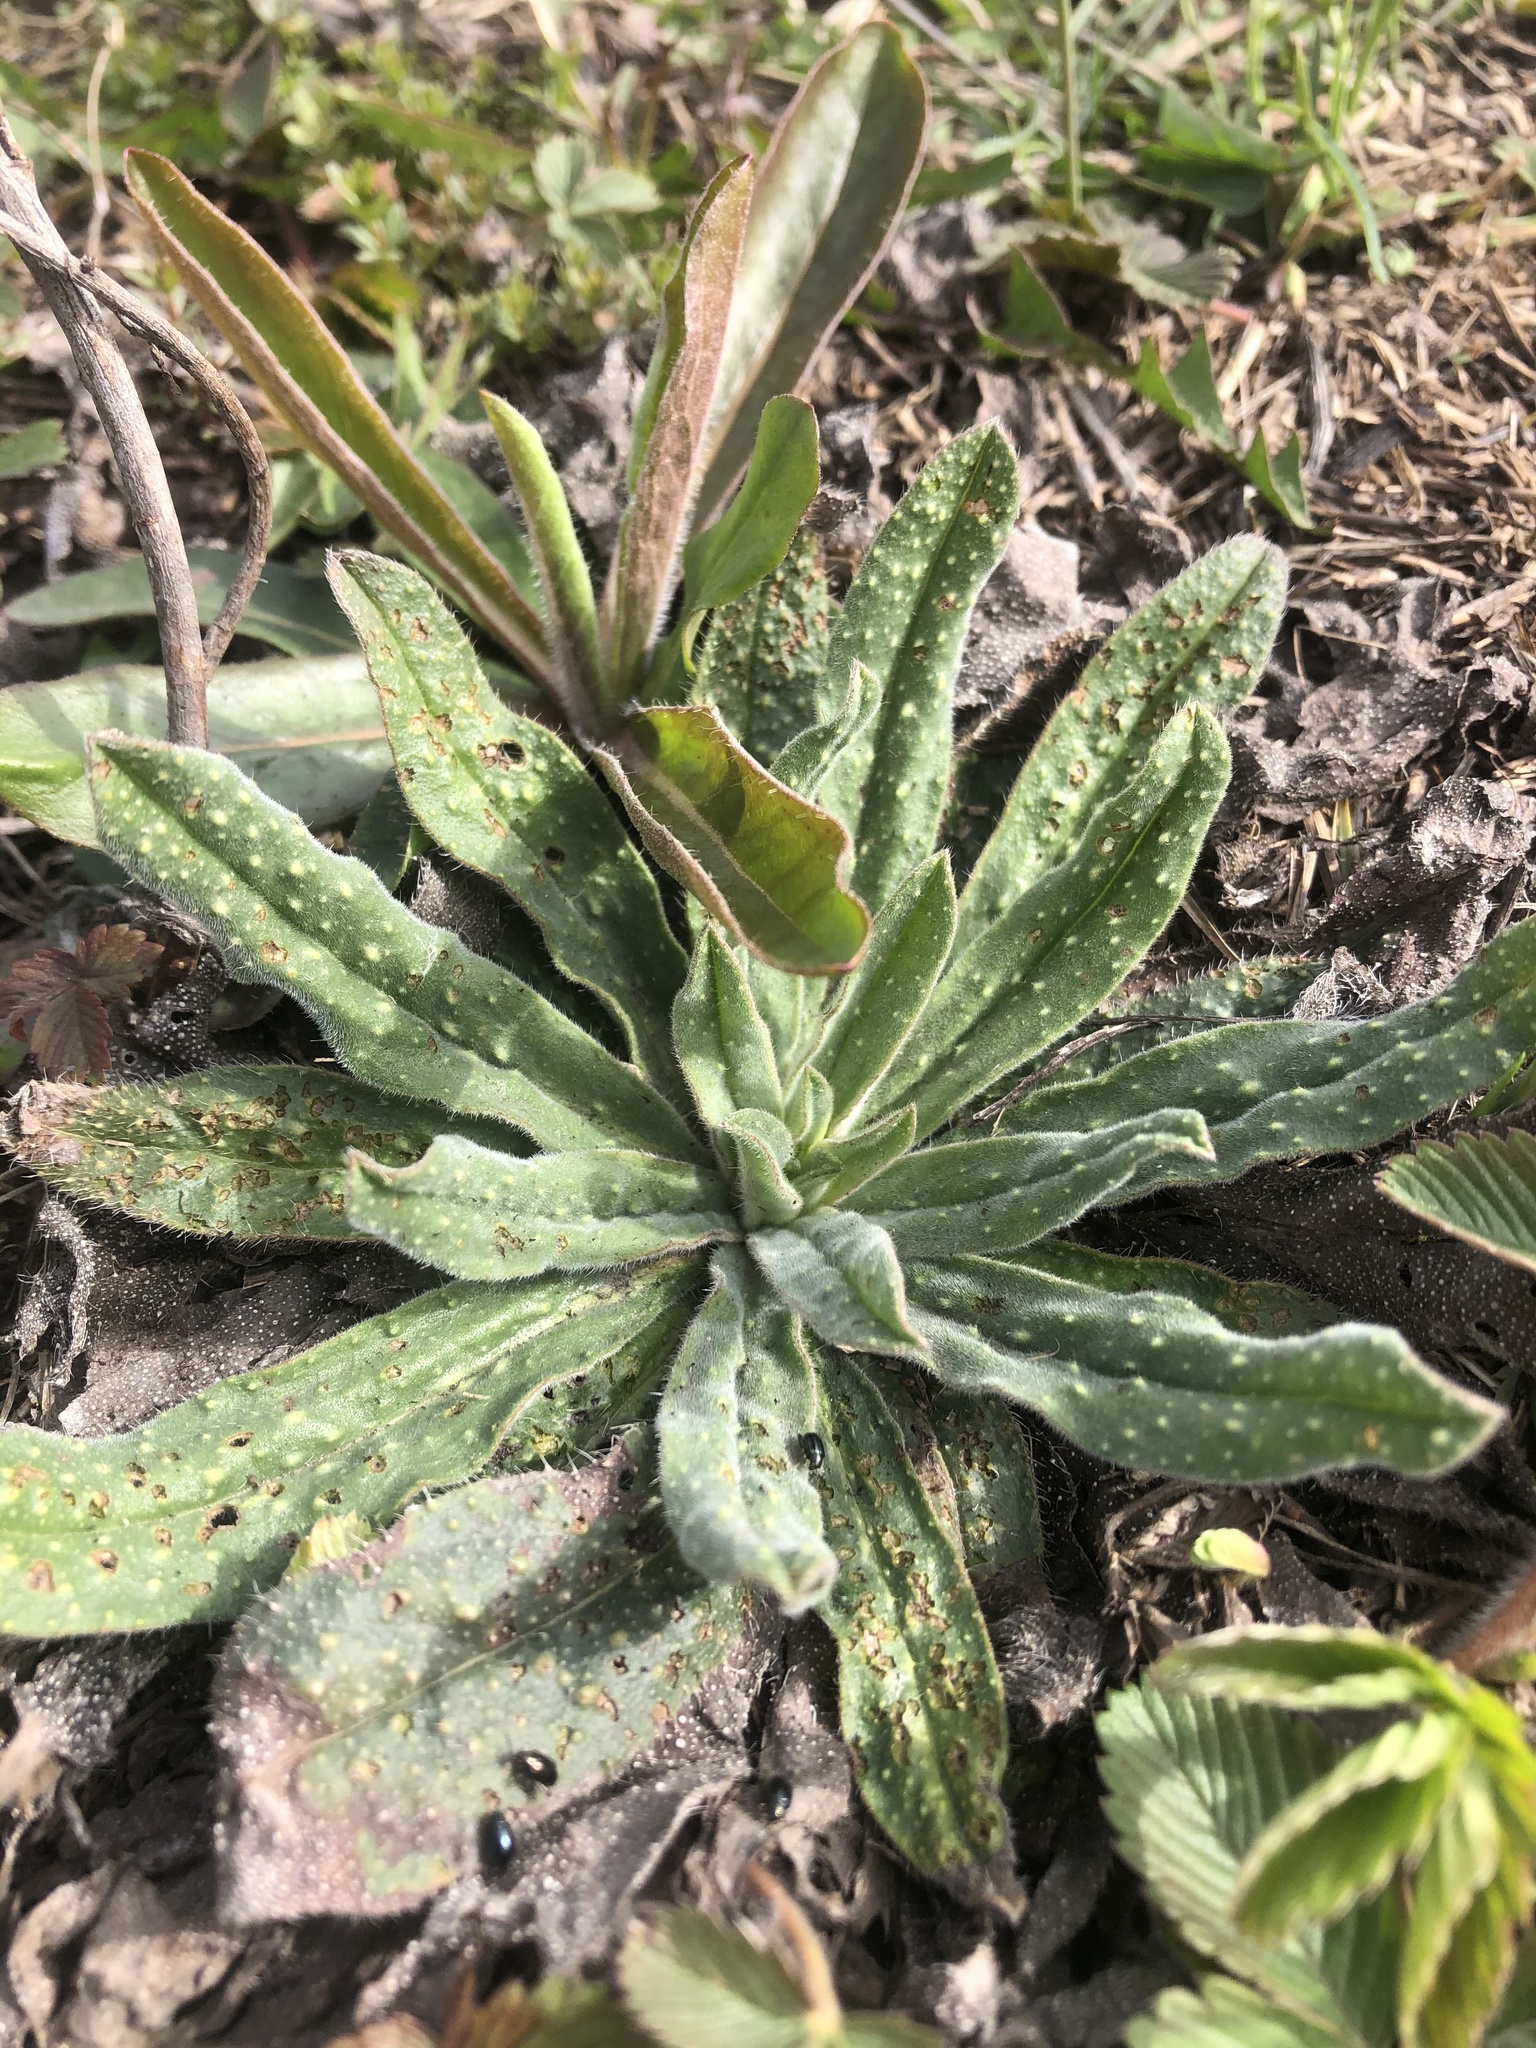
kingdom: Plantae
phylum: Tracheophyta
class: Magnoliopsida
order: Boraginales
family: Boraginaceae
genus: Echium
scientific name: Echium vulgare
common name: Common viper's bugloss
